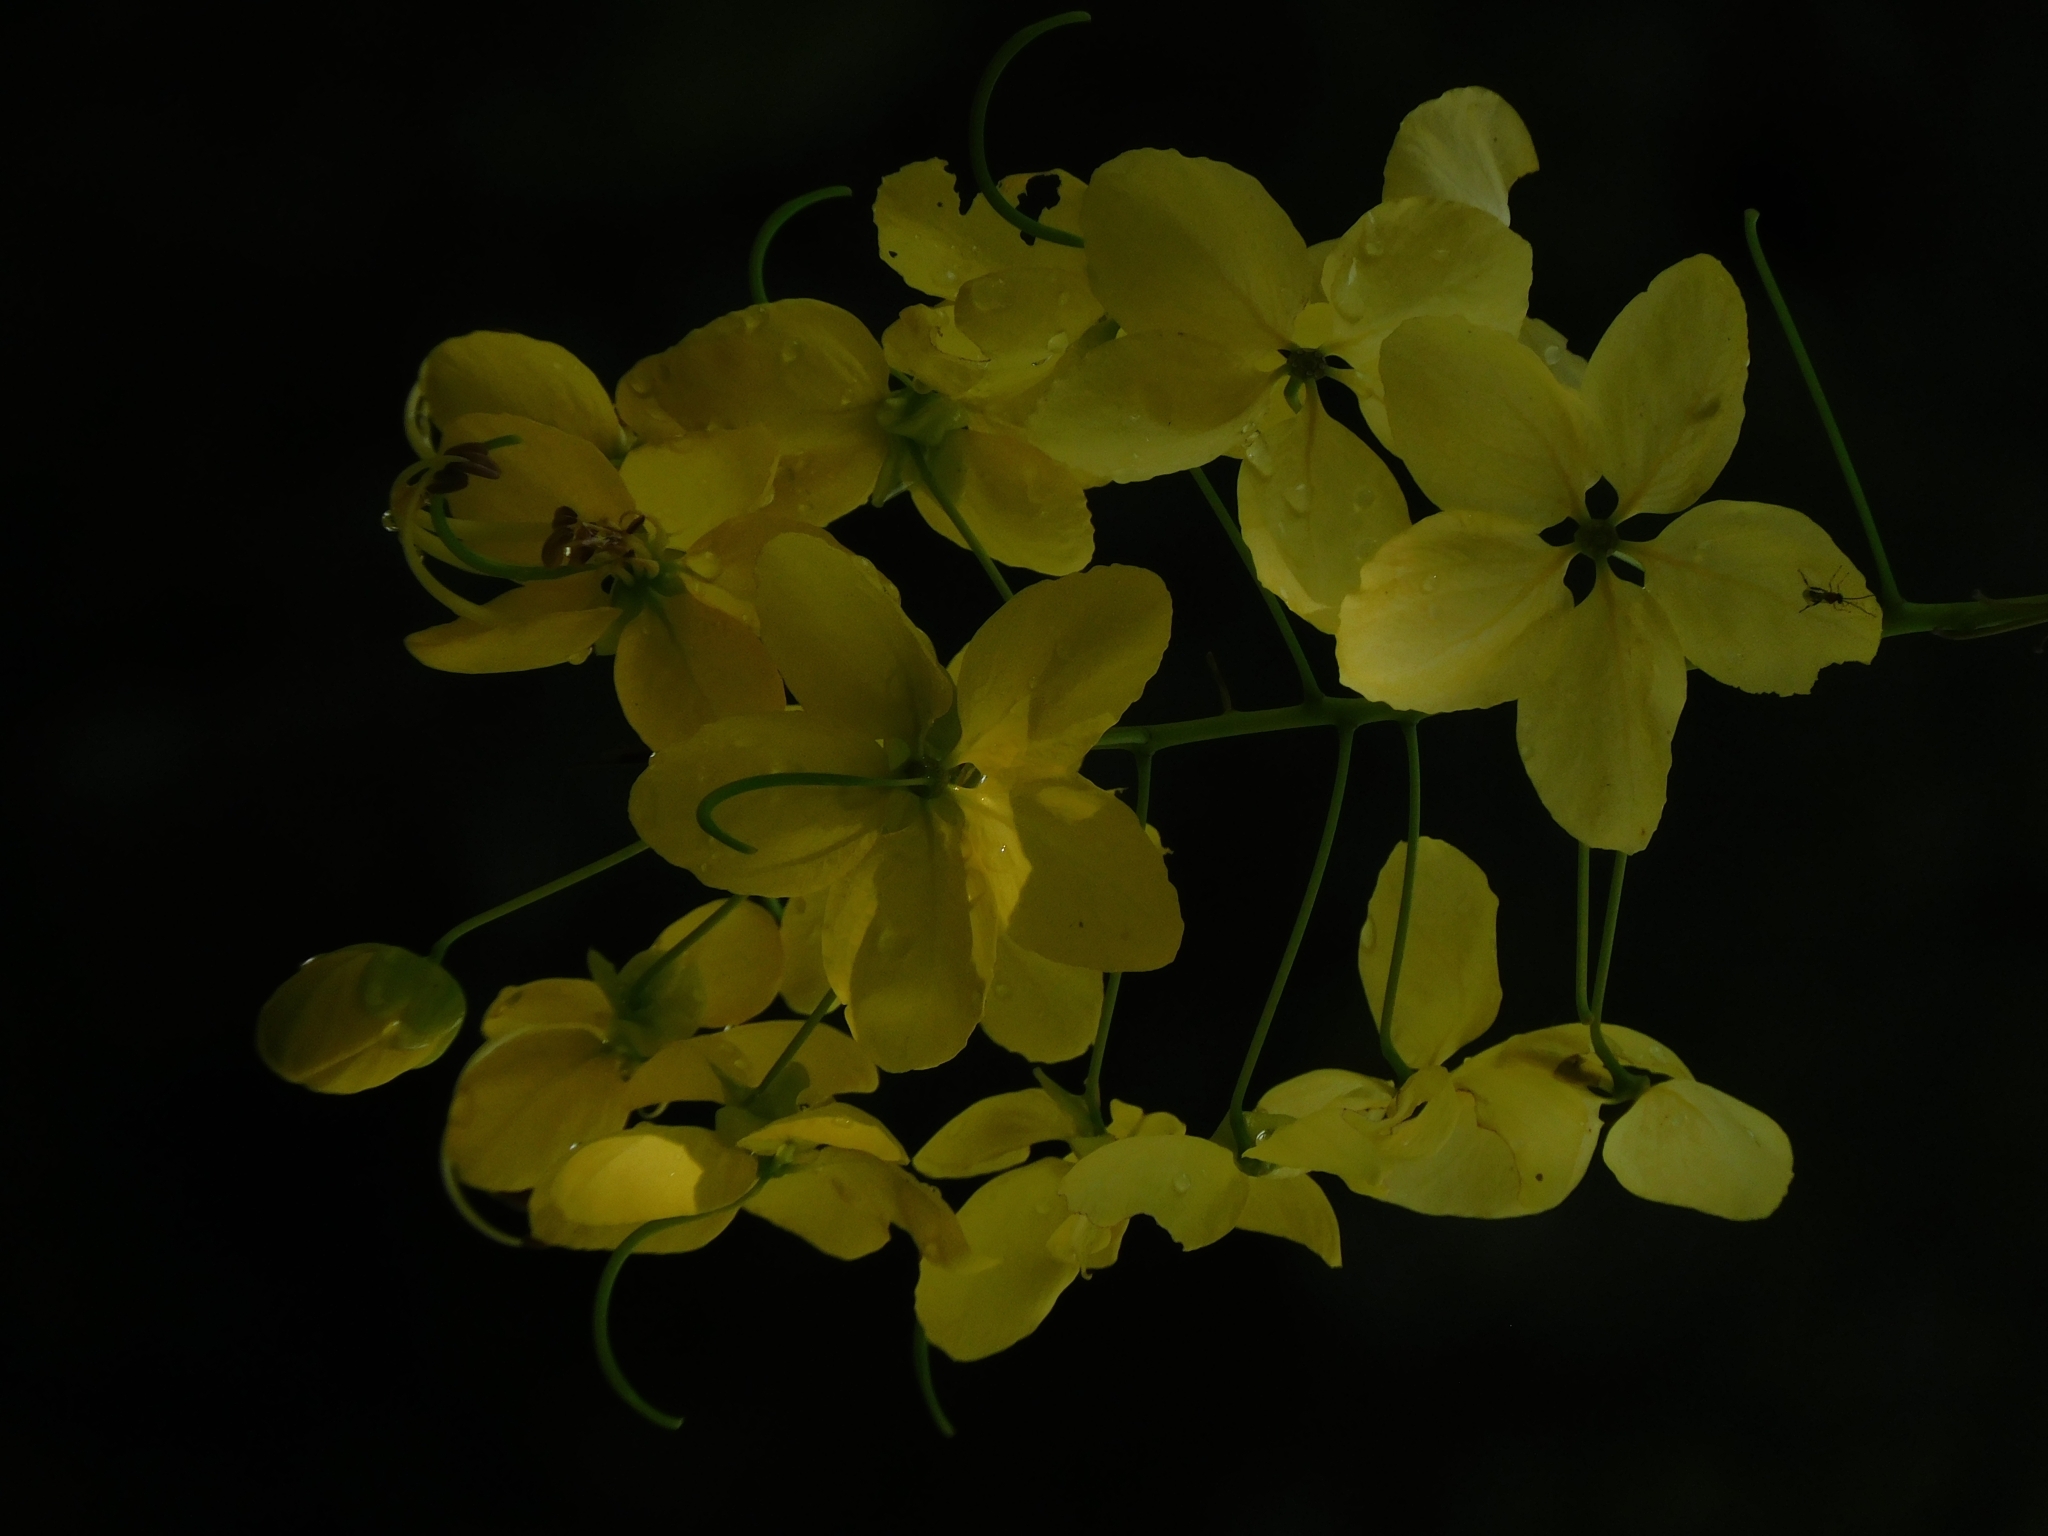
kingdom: Plantae
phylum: Tracheophyta
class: Magnoliopsida
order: Fabales
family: Fabaceae
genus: Cassia
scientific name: Cassia fistula
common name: Golden shower
